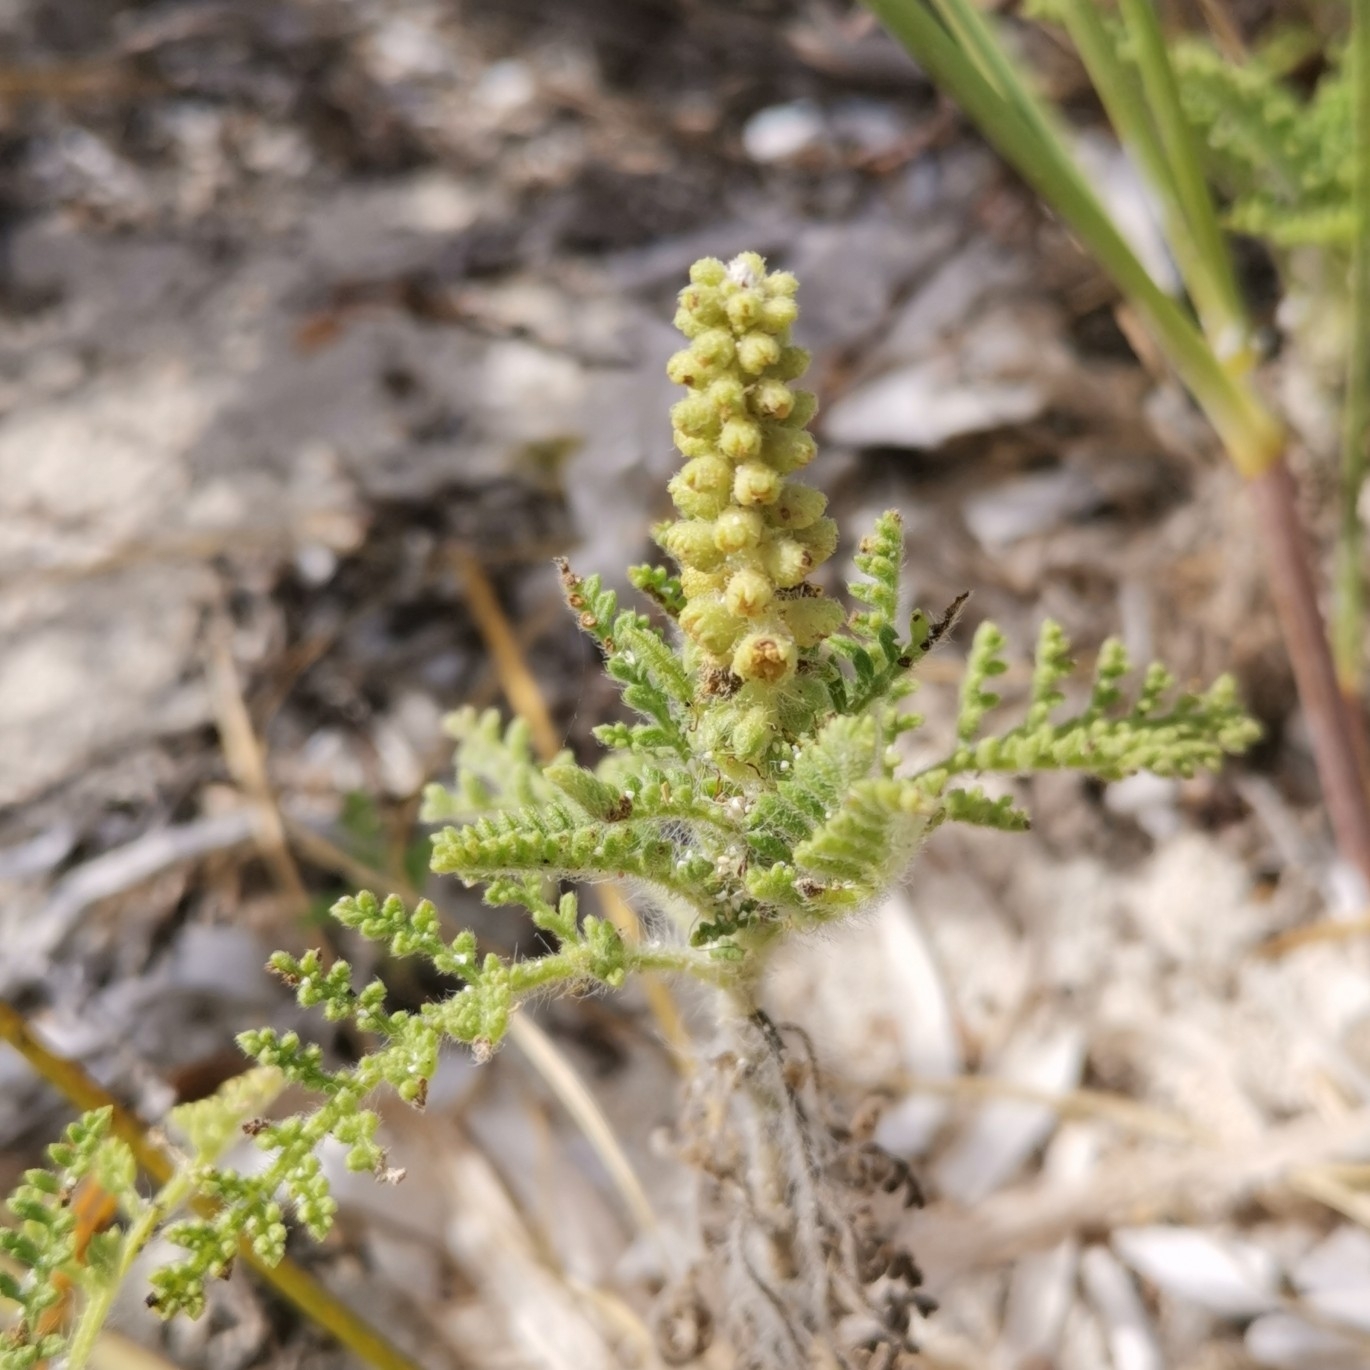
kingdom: Plantae
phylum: Tracheophyta
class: Magnoliopsida
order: Asterales
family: Asteraceae
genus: Ambrosia
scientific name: Ambrosia hispida
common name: Coastal ragweed
